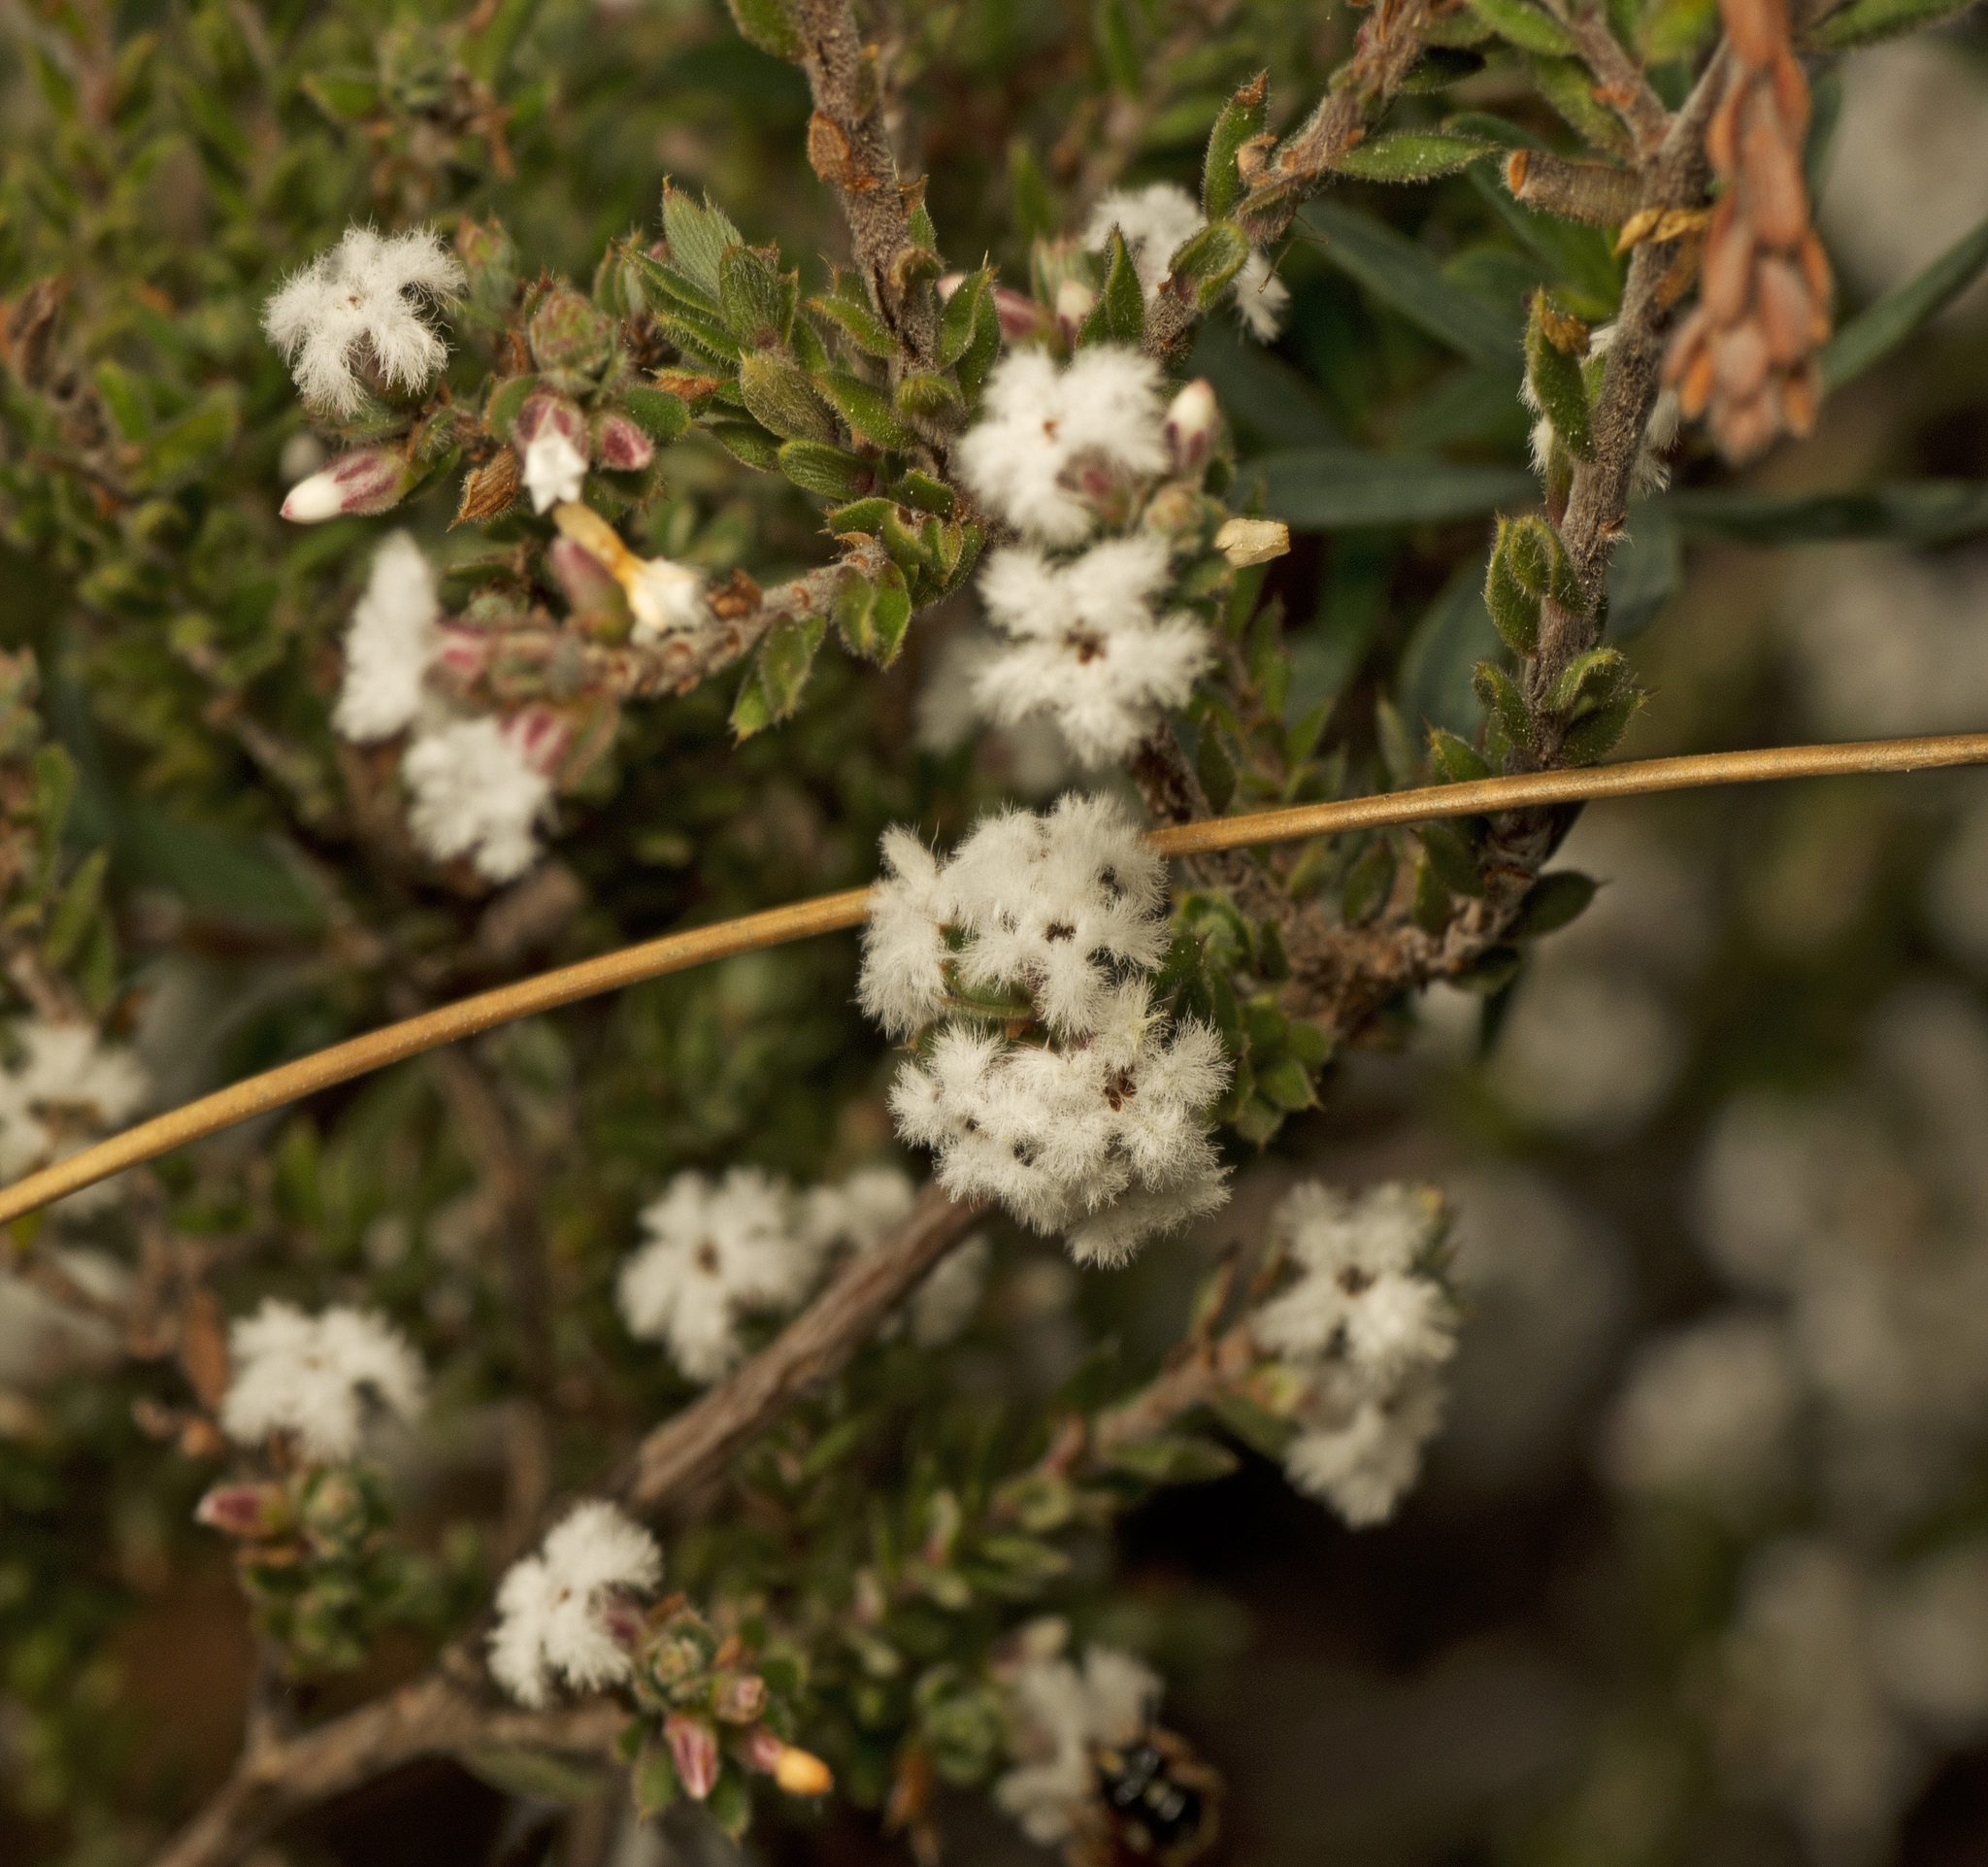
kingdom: Plantae
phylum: Tracheophyta
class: Magnoliopsida
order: Ericales
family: Ericaceae
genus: Styphelia
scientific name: Styphelia attenuata
